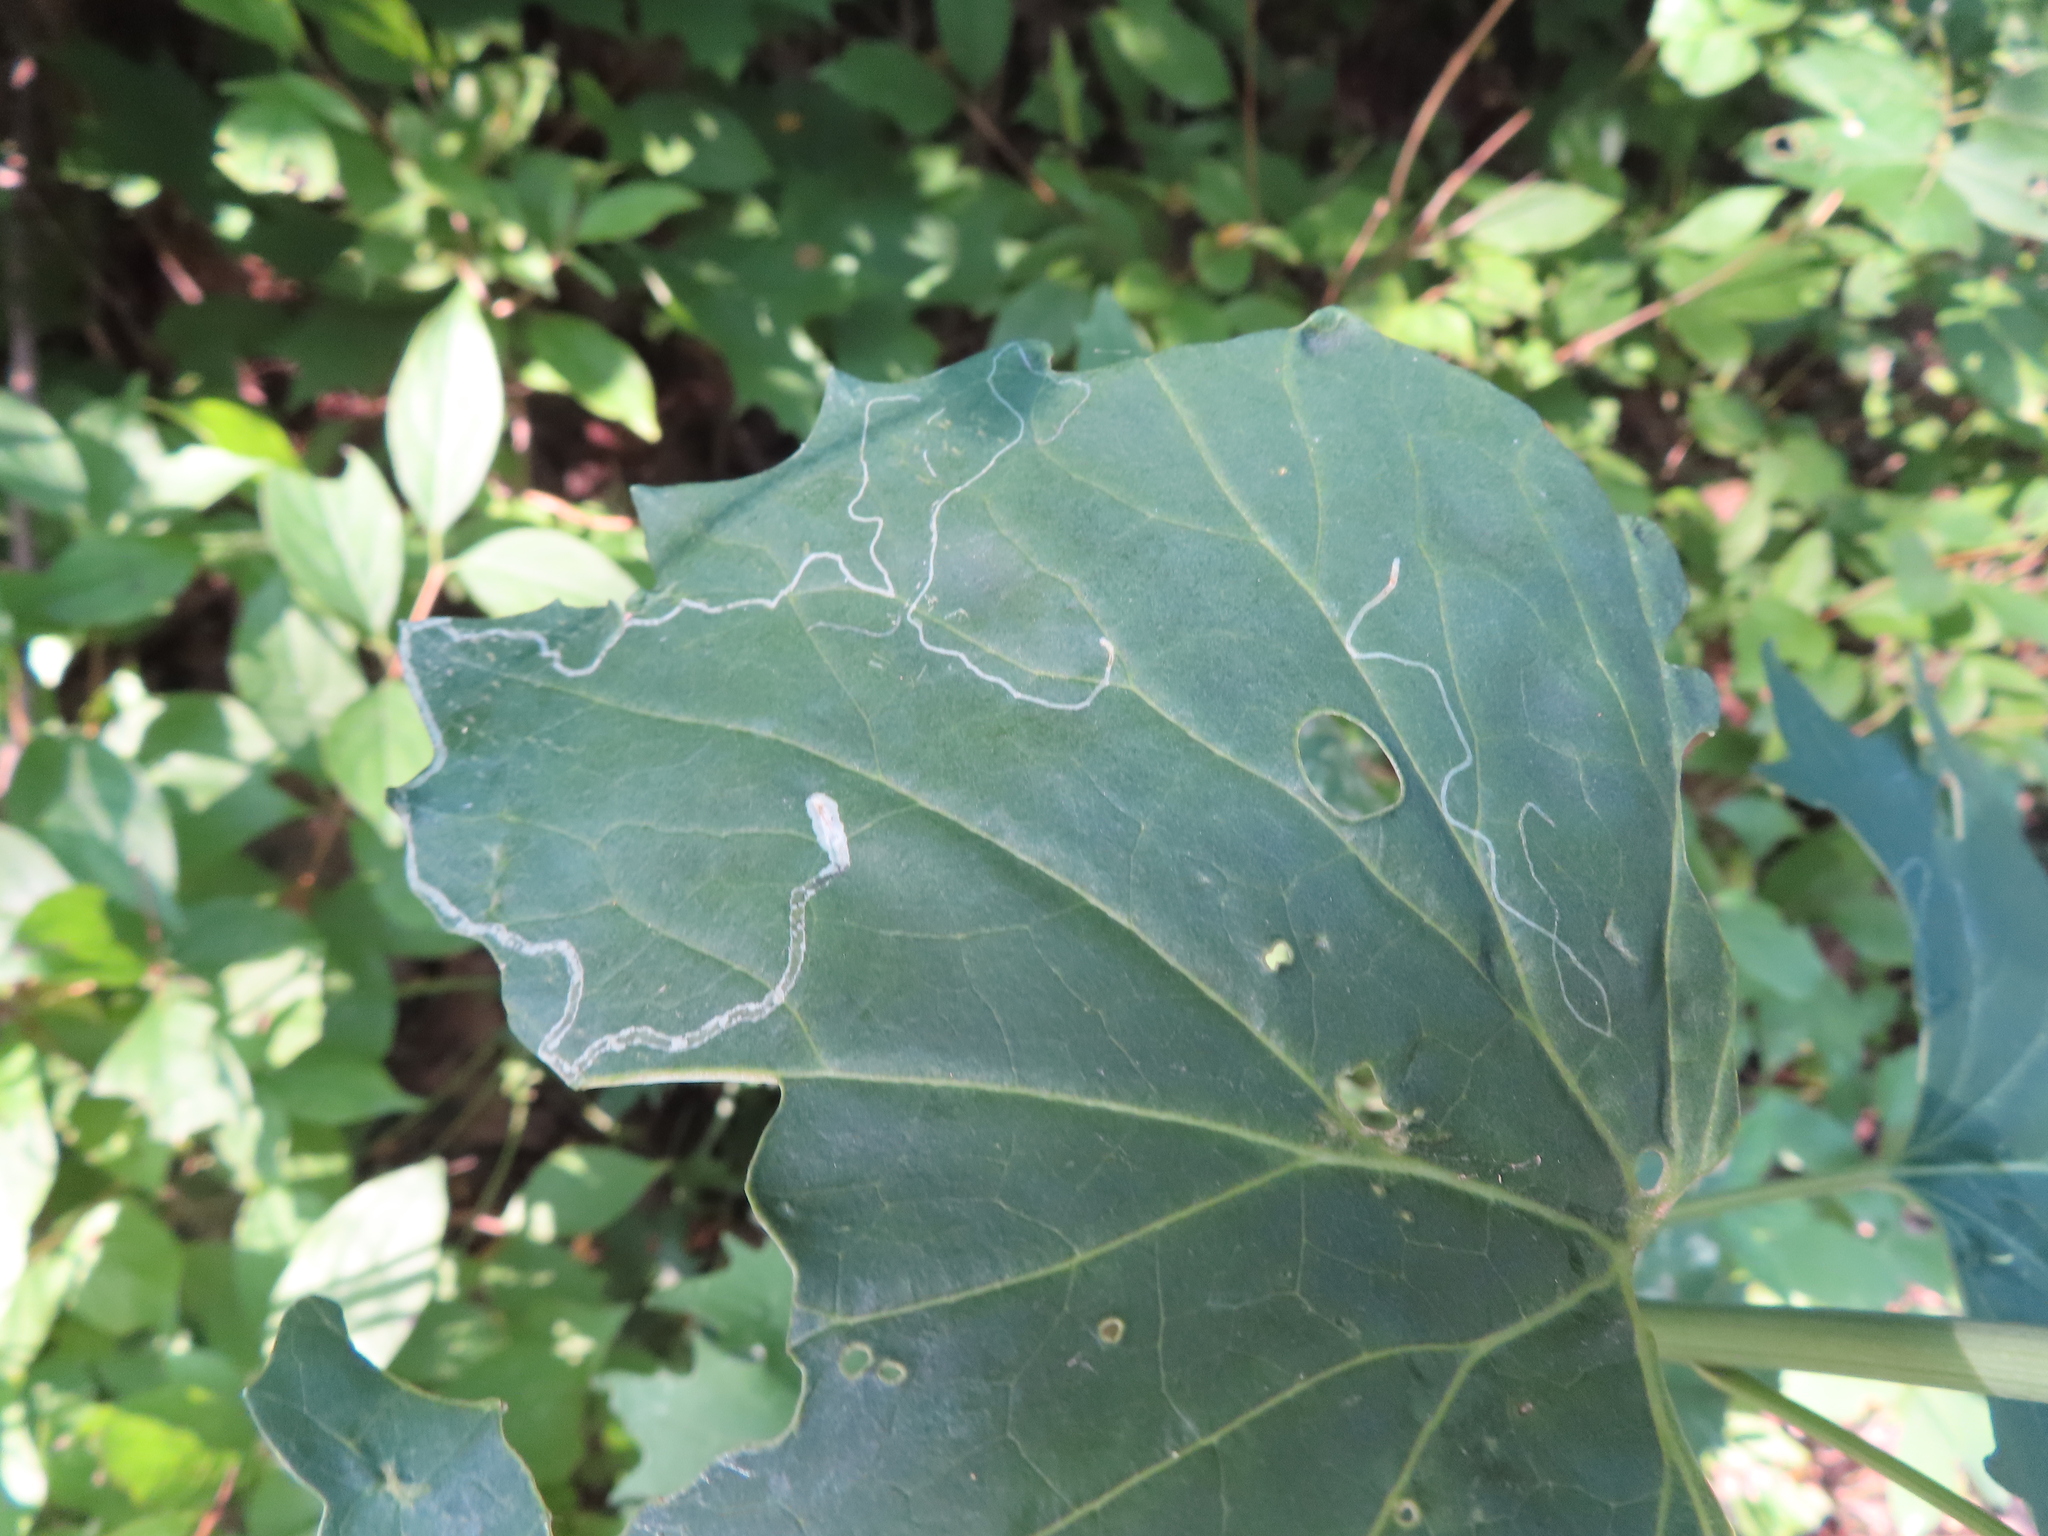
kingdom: Animalia
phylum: Arthropoda
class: Insecta
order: Lepidoptera
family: Gracillariidae
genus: Phyllocnistis
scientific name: Phyllocnistis insignis
